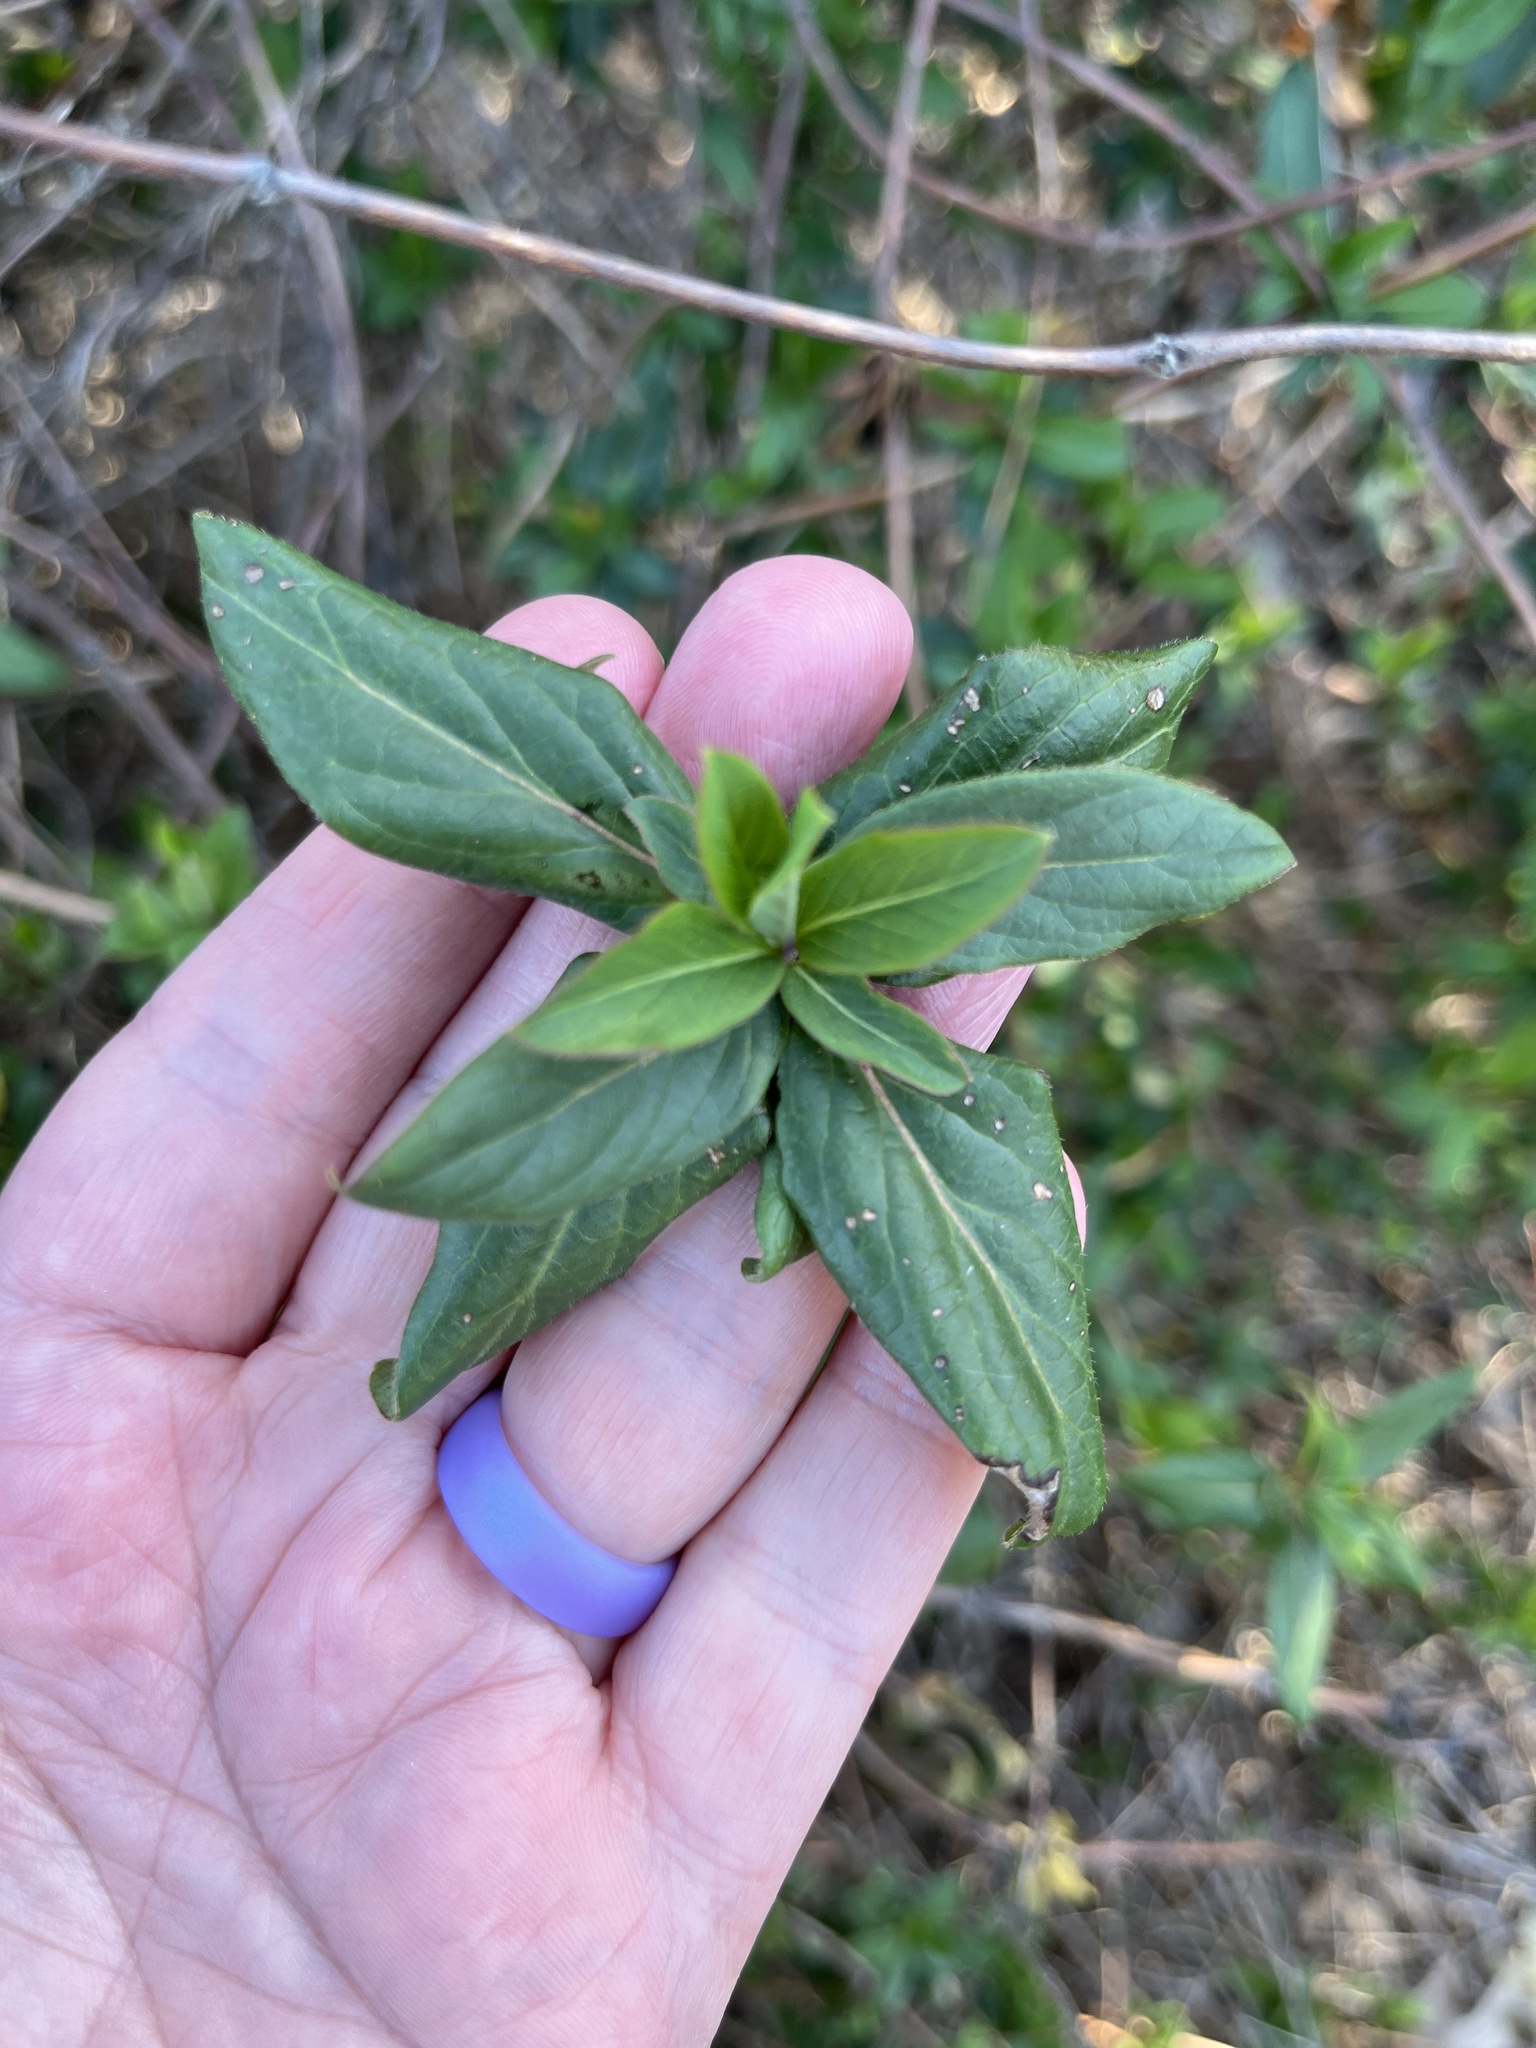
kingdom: Plantae
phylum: Tracheophyta
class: Magnoliopsida
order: Dipsacales
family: Caprifoliaceae
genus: Lonicera
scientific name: Lonicera japonica
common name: Japanese honeysuckle
